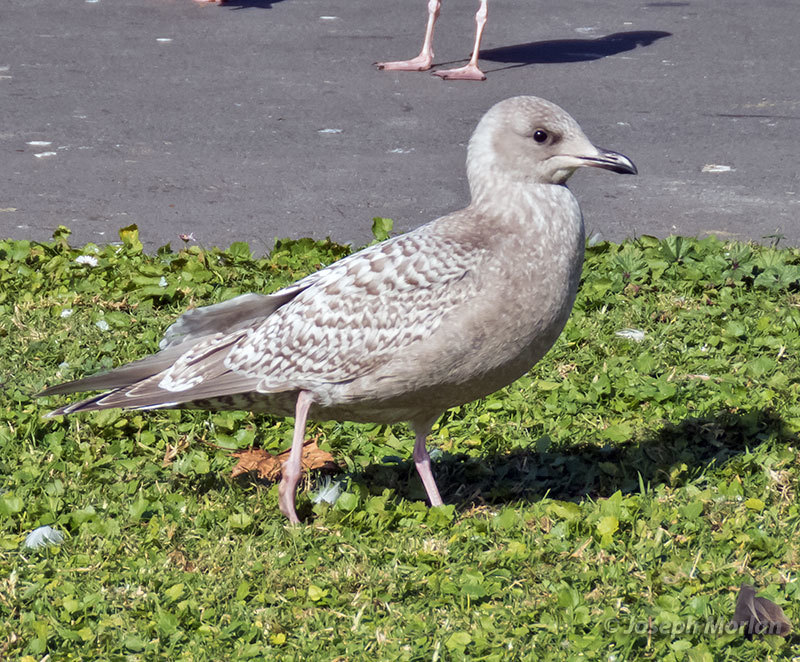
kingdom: Animalia
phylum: Chordata
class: Aves
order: Charadriiformes
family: Laridae
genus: Larus
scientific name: Larus glaucoides
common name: Iceland gull
